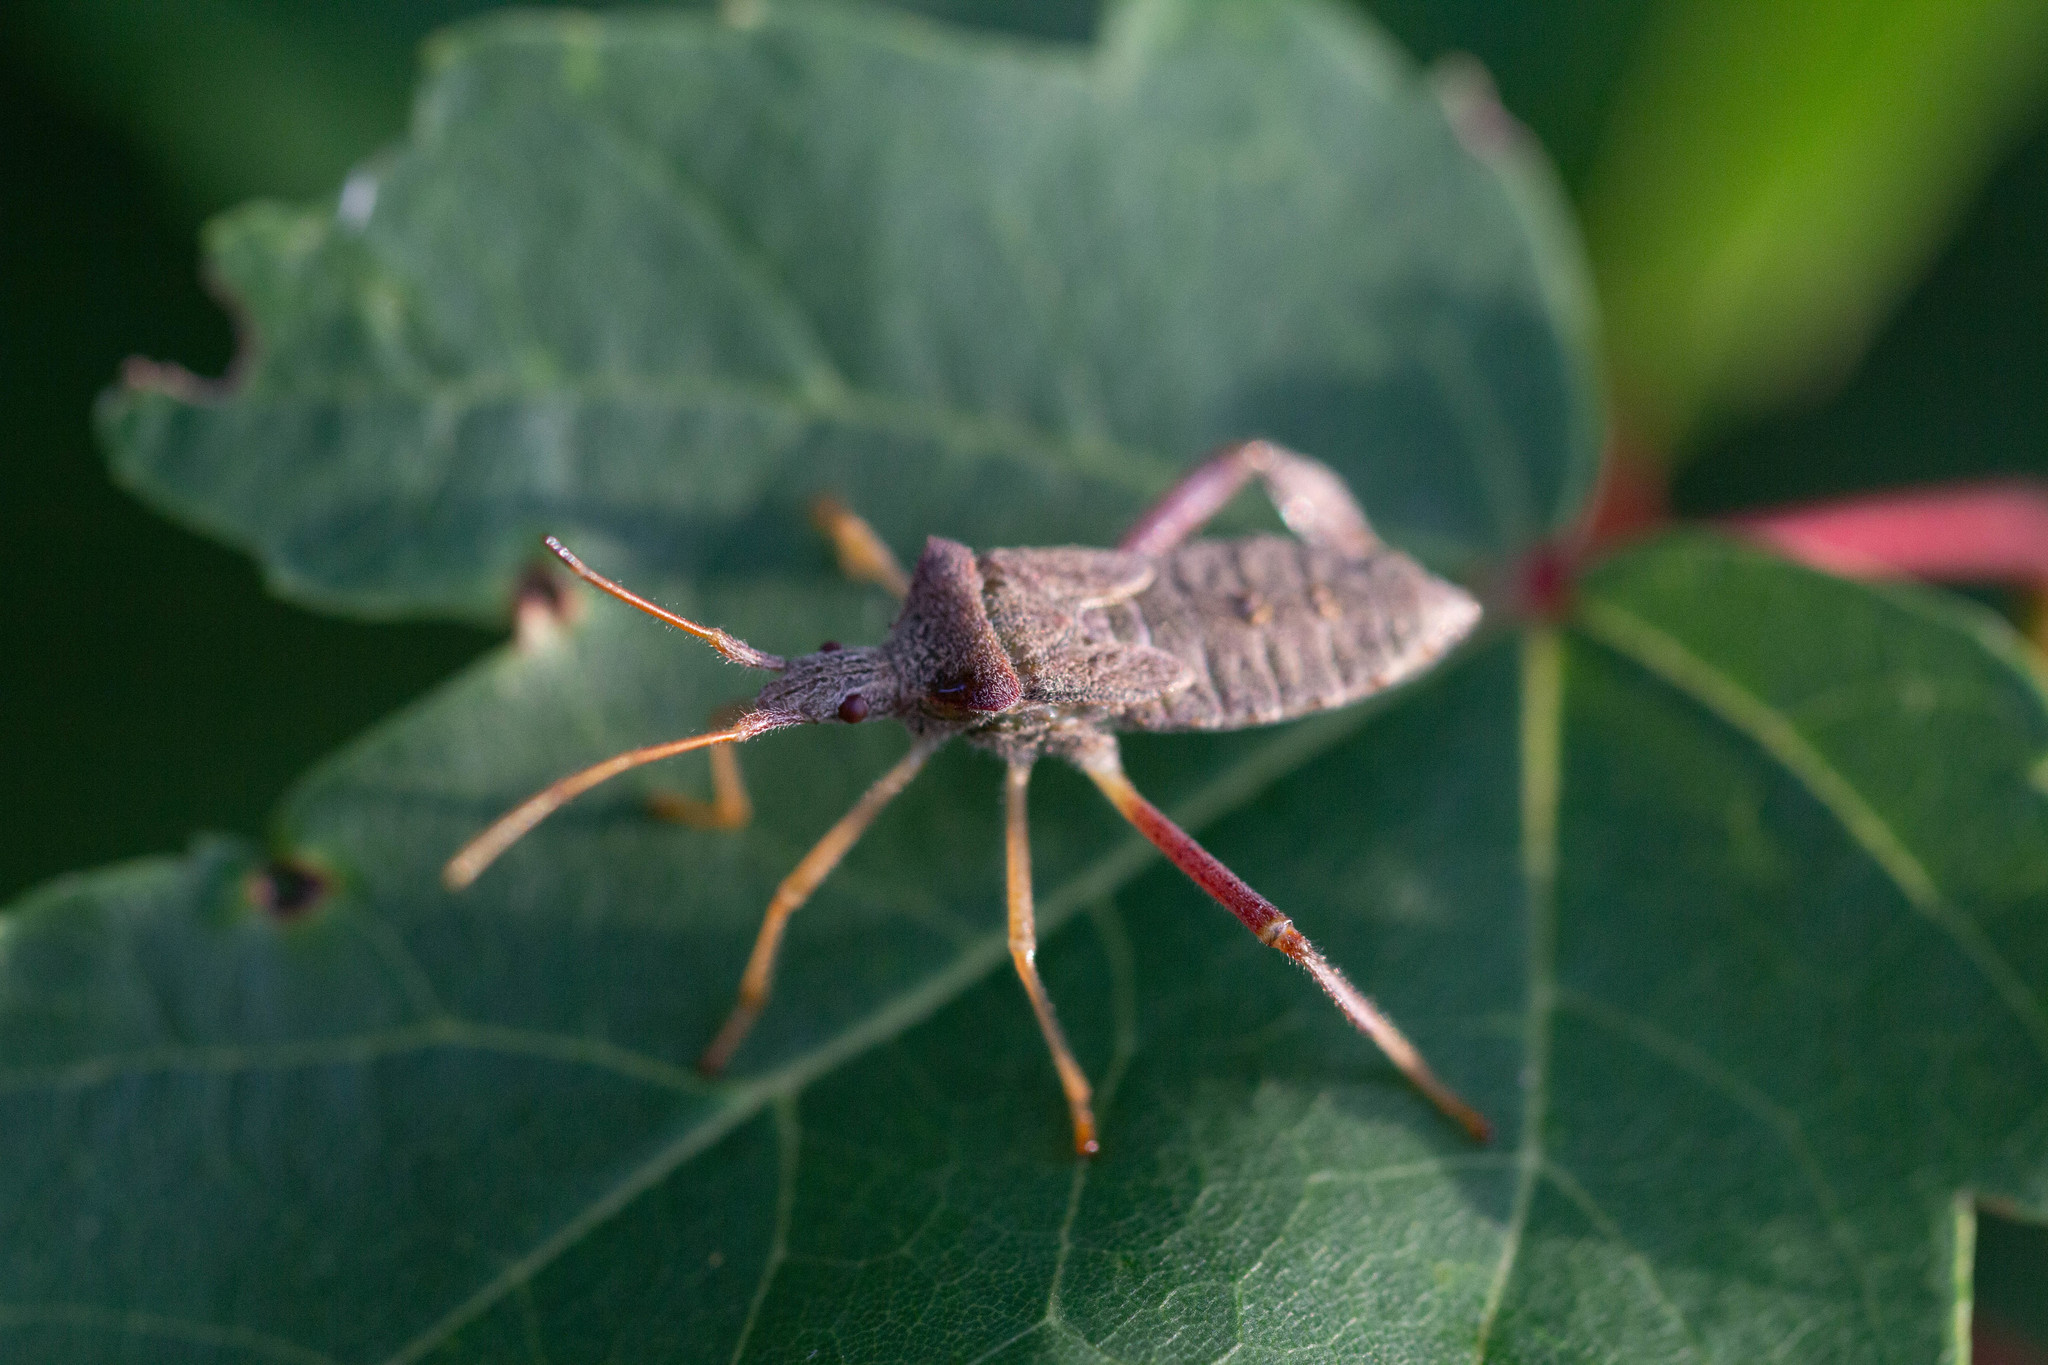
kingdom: Animalia
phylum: Arthropoda
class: Insecta
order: Hemiptera
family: Coreidae
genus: Leptoglossus
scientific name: Leptoglossus fulvicornis
